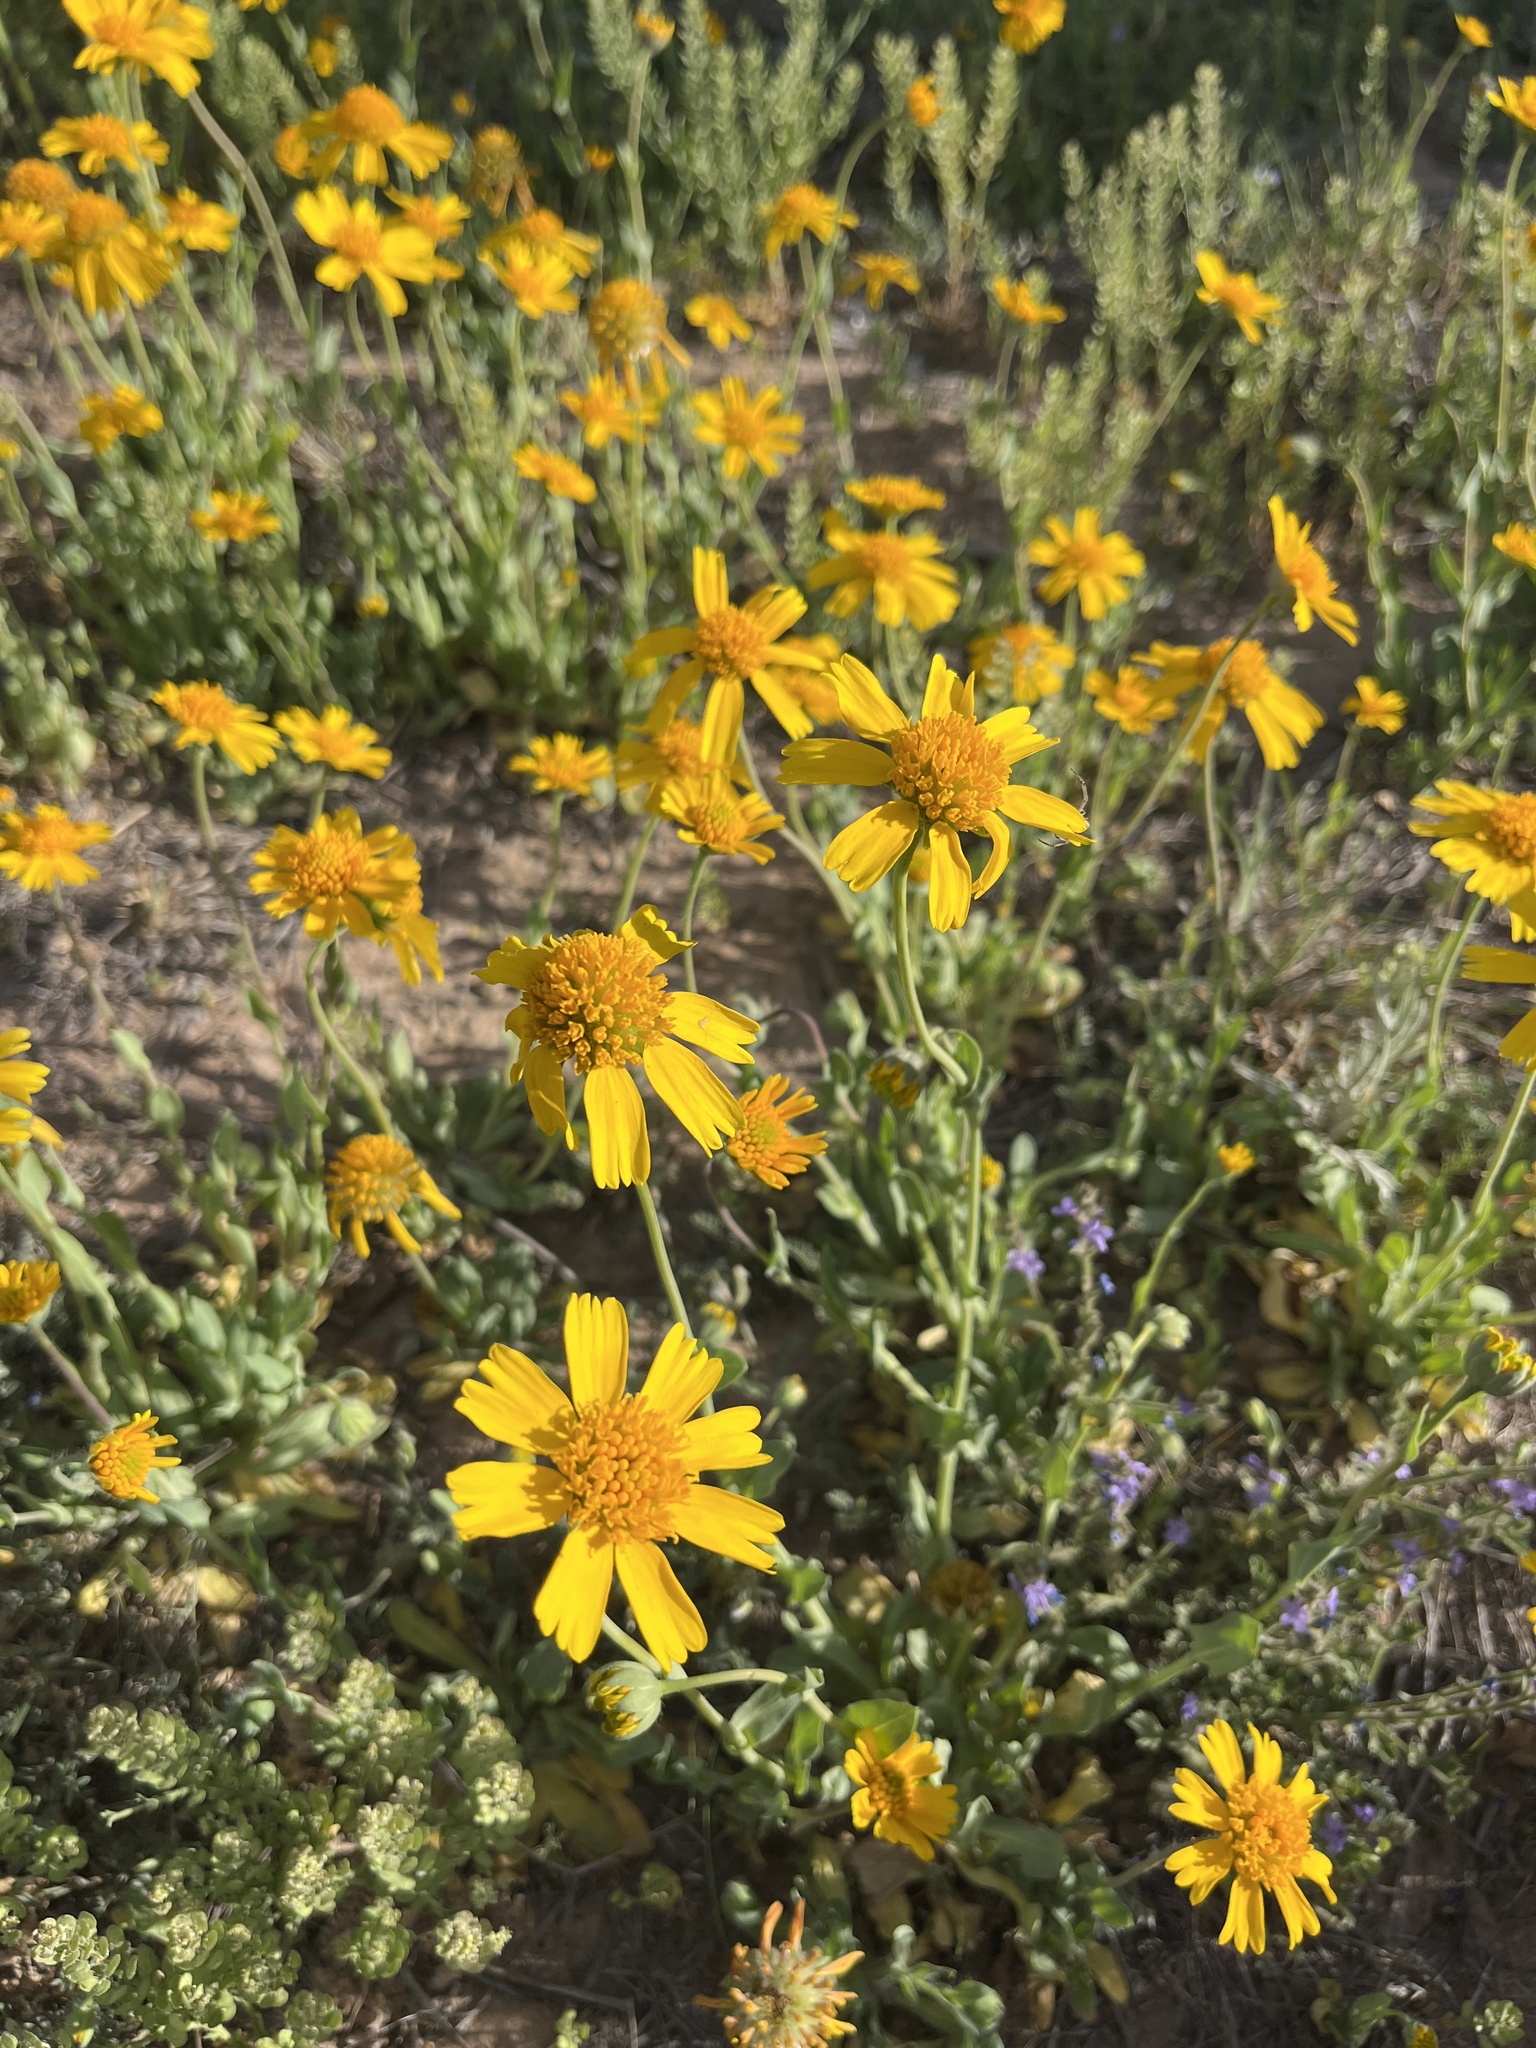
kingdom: Plantae
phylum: Tracheophyta
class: Magnoliopsida
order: Asterales
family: Asteraceae
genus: Amblyolepis
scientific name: Amblyolepis setigera
